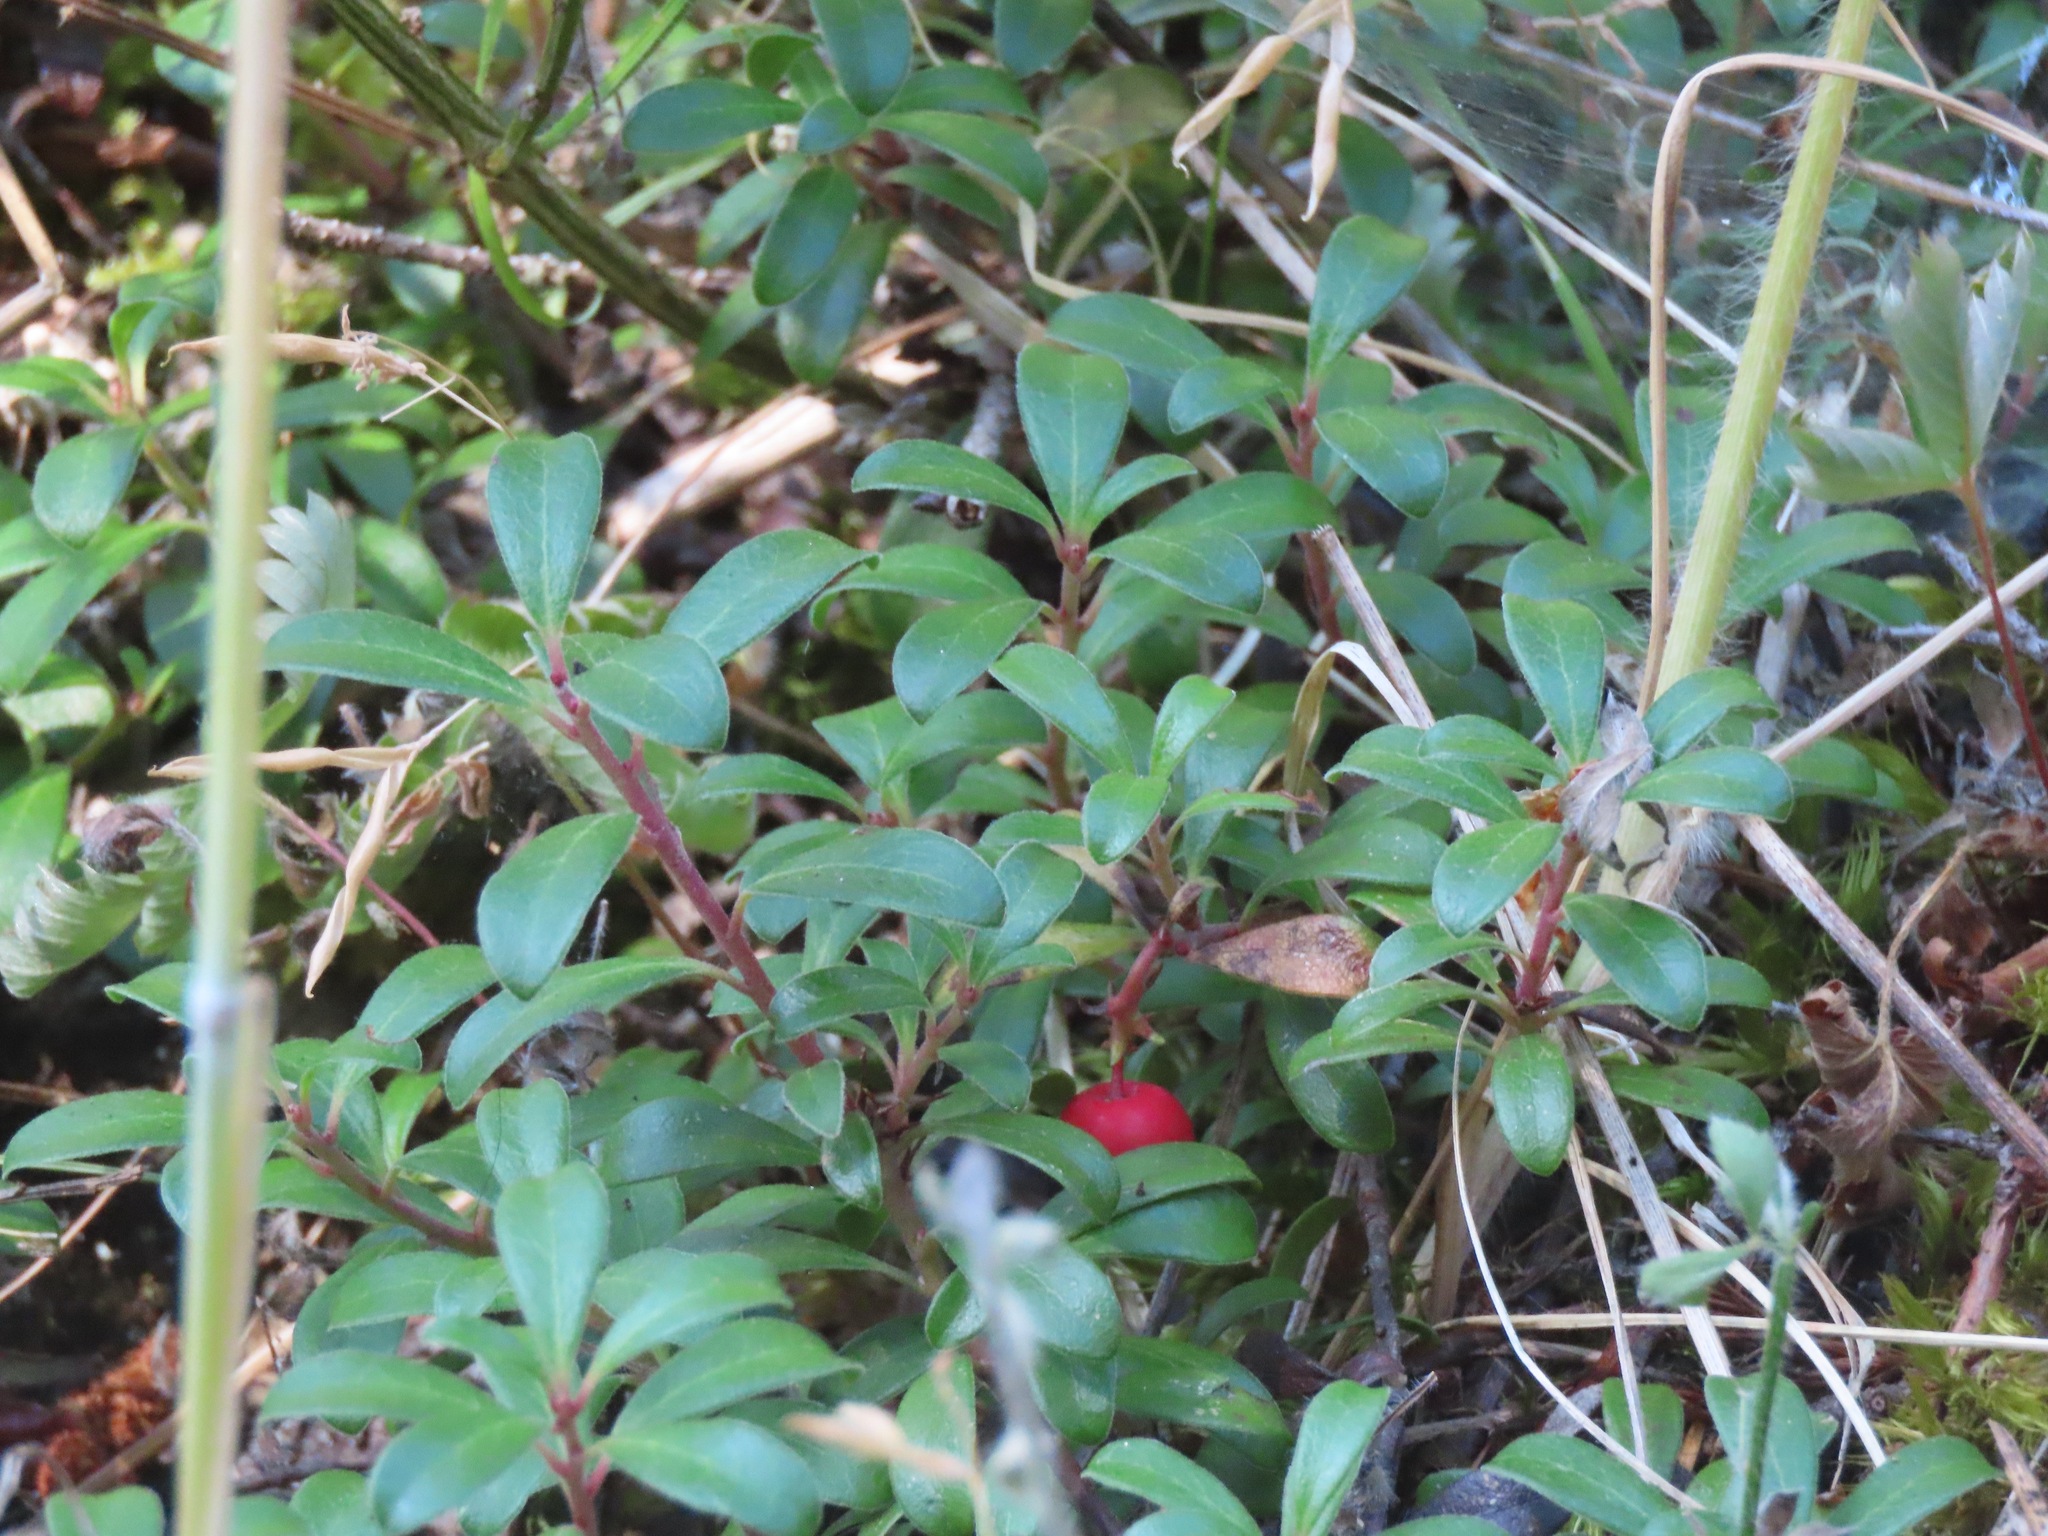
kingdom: Plantae
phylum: Tracheophyta
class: Magnoliopsida
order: Ericales
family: Ericaceae
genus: Arctostaphylos
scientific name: Arctostaphylos uva-ursi
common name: Bearberry
